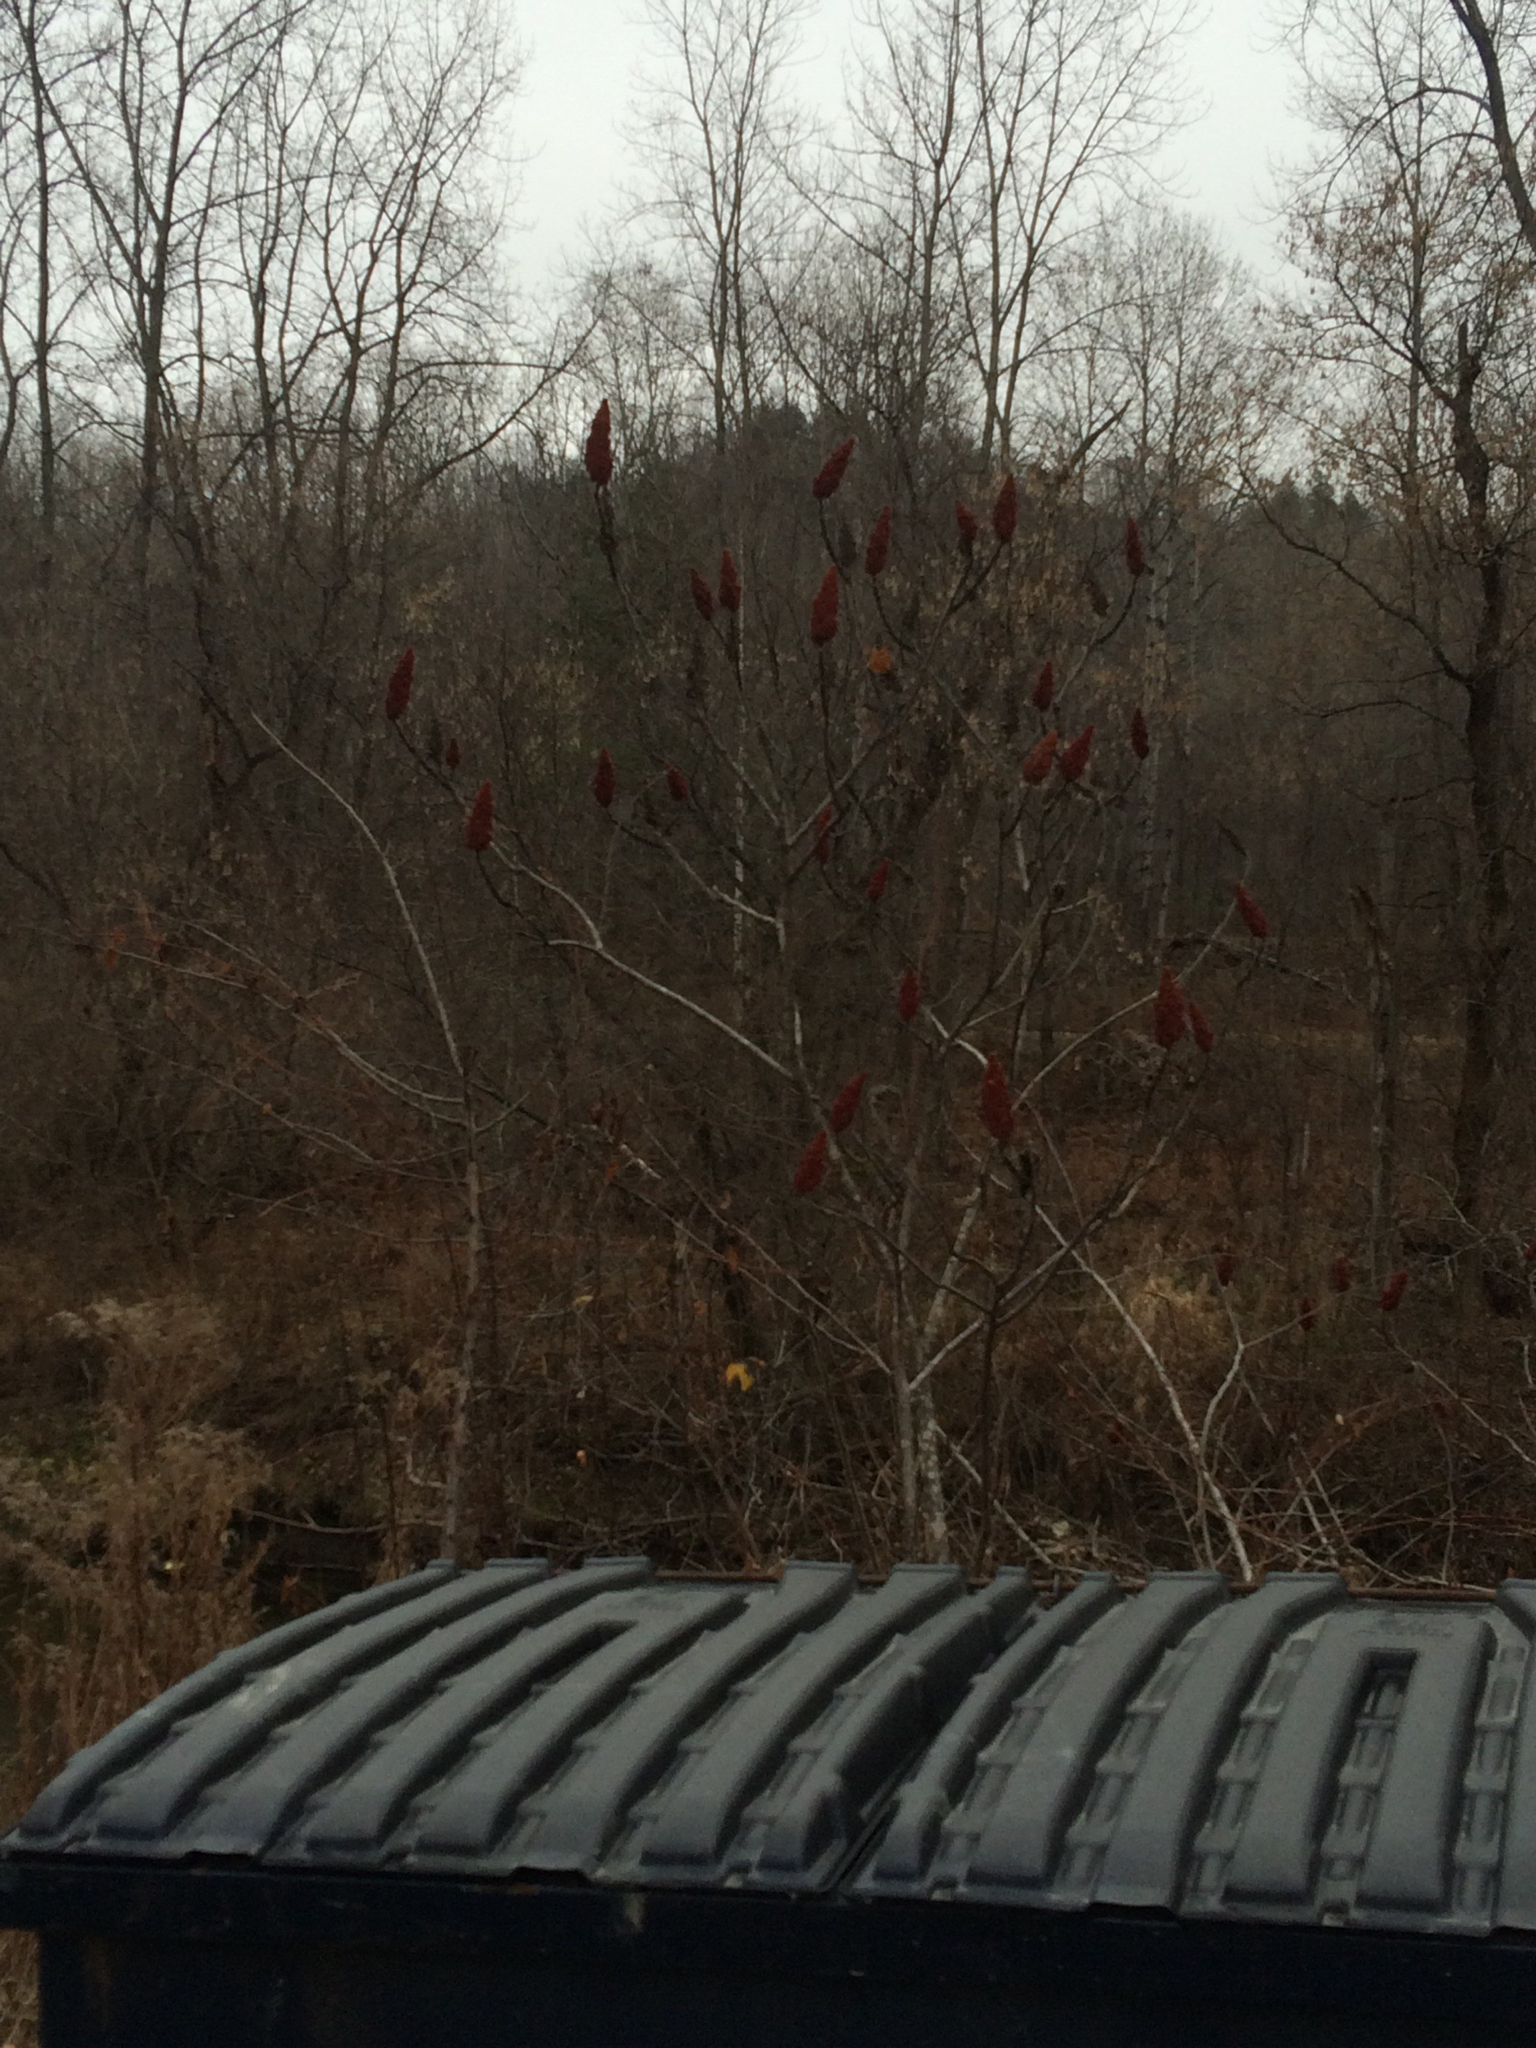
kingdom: Plantae
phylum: Tracheophyta
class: Magnoliopsida
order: Sapindales
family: Anacardiaceae
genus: Rhus
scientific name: Rhus typhina
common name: Staghorn sumac
